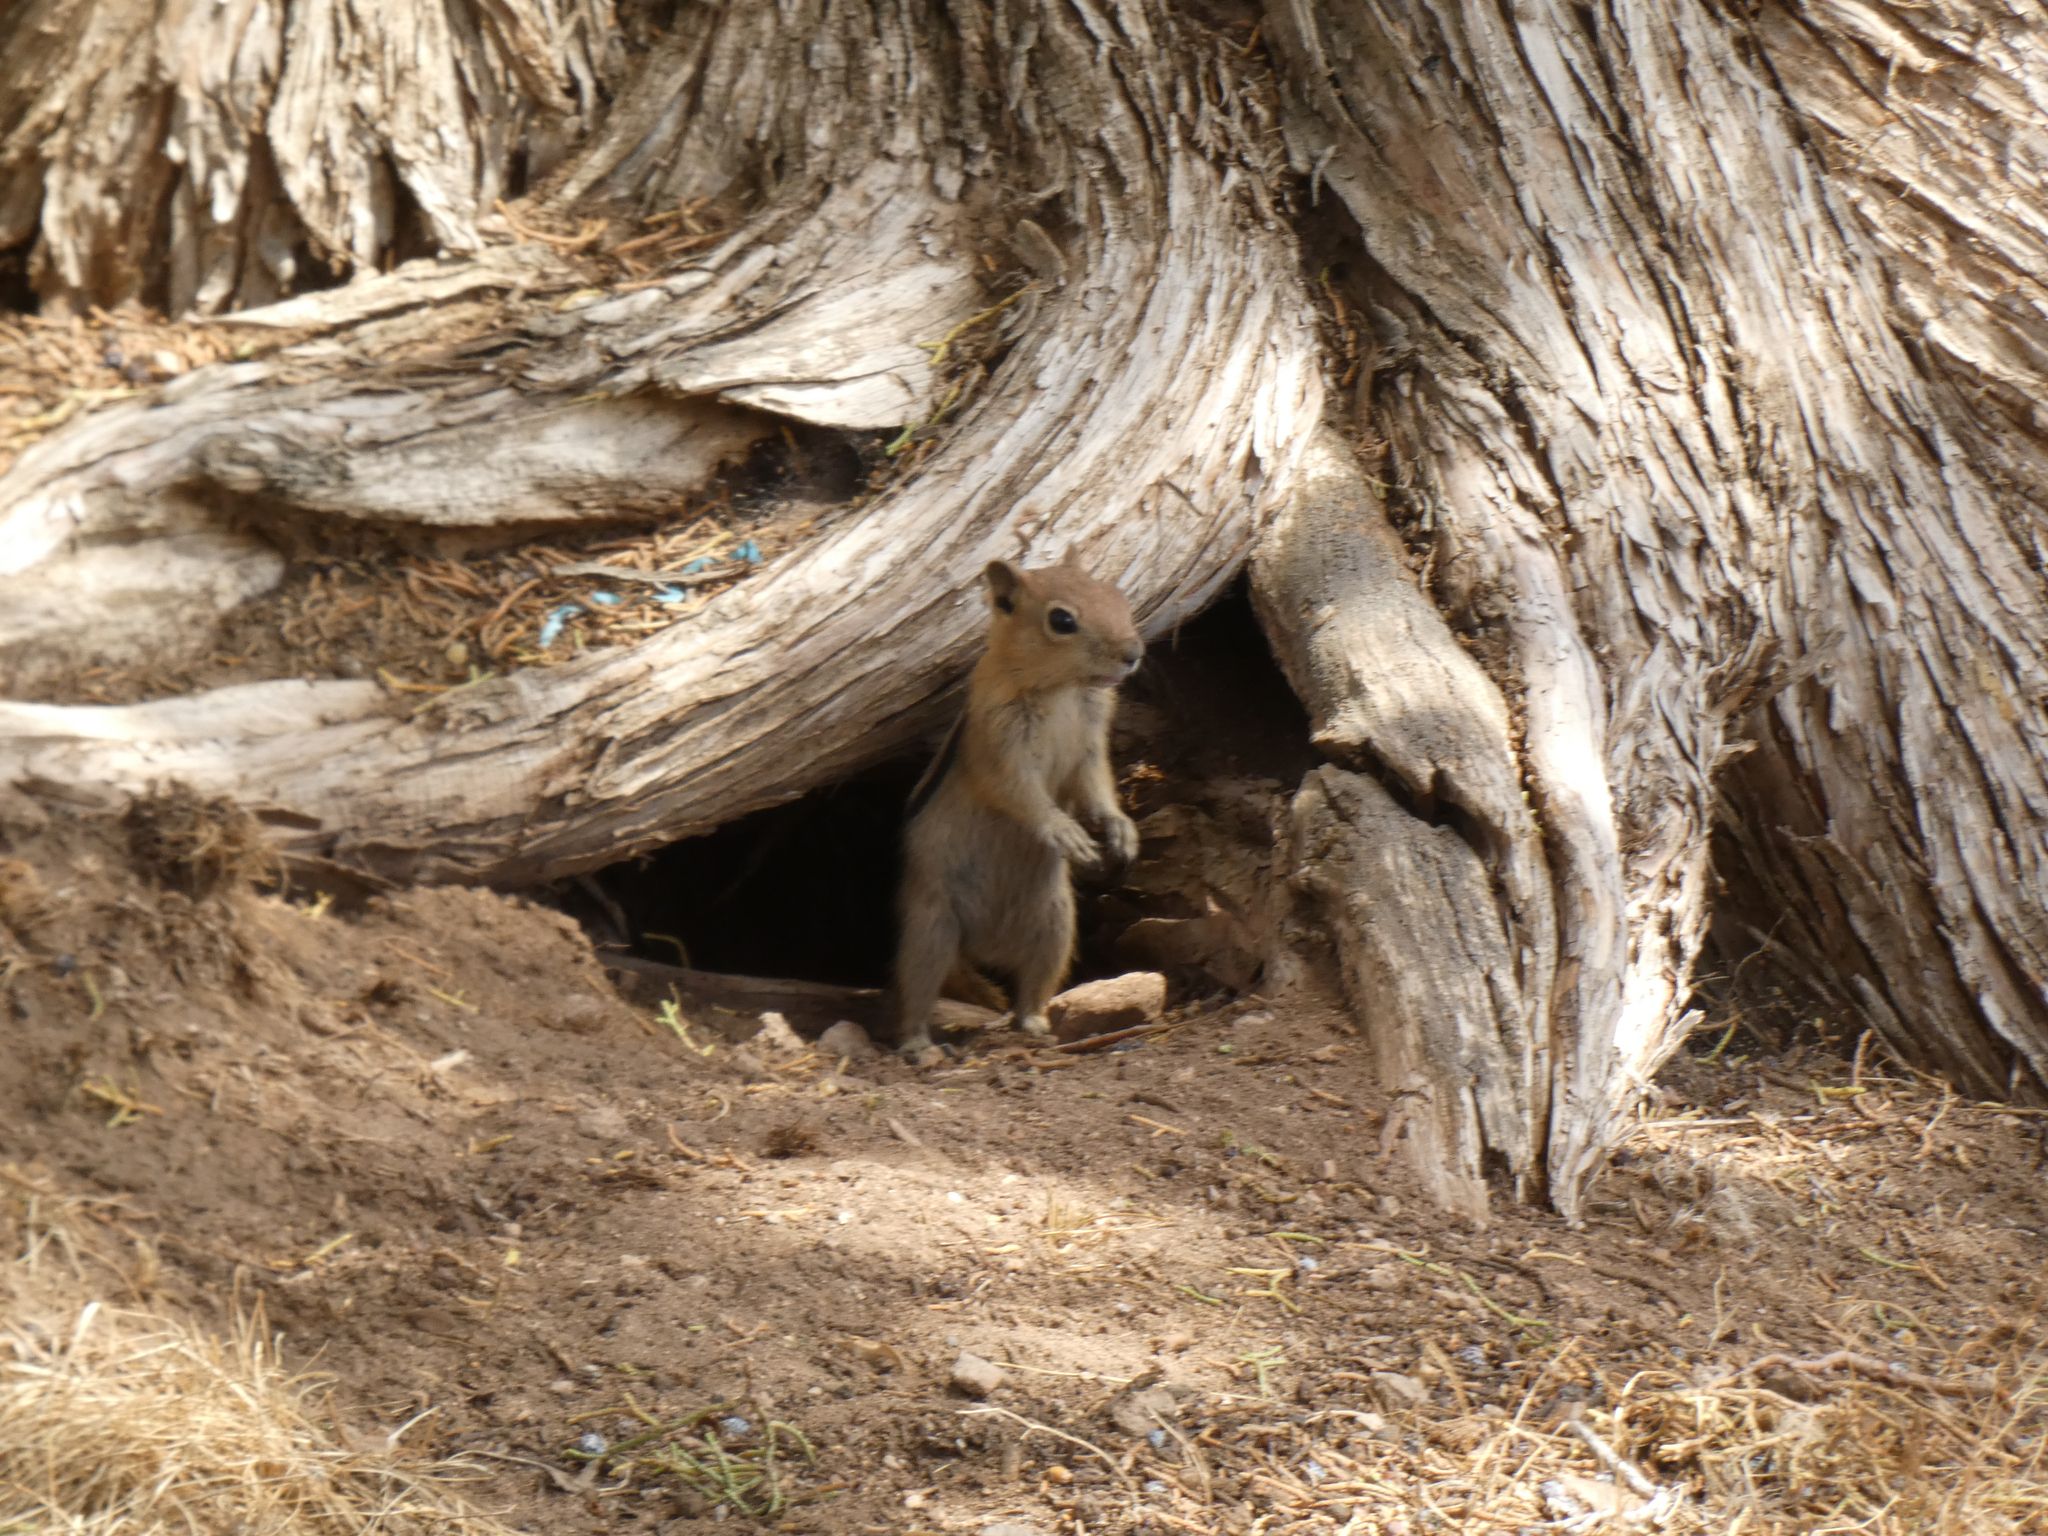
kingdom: Animalia
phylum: Chordata
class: Mammalia
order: Rodentia
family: Sciuridae
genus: Callospermophilus
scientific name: Callospermophilus lateralis
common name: Golden-mantled ground squirrel
